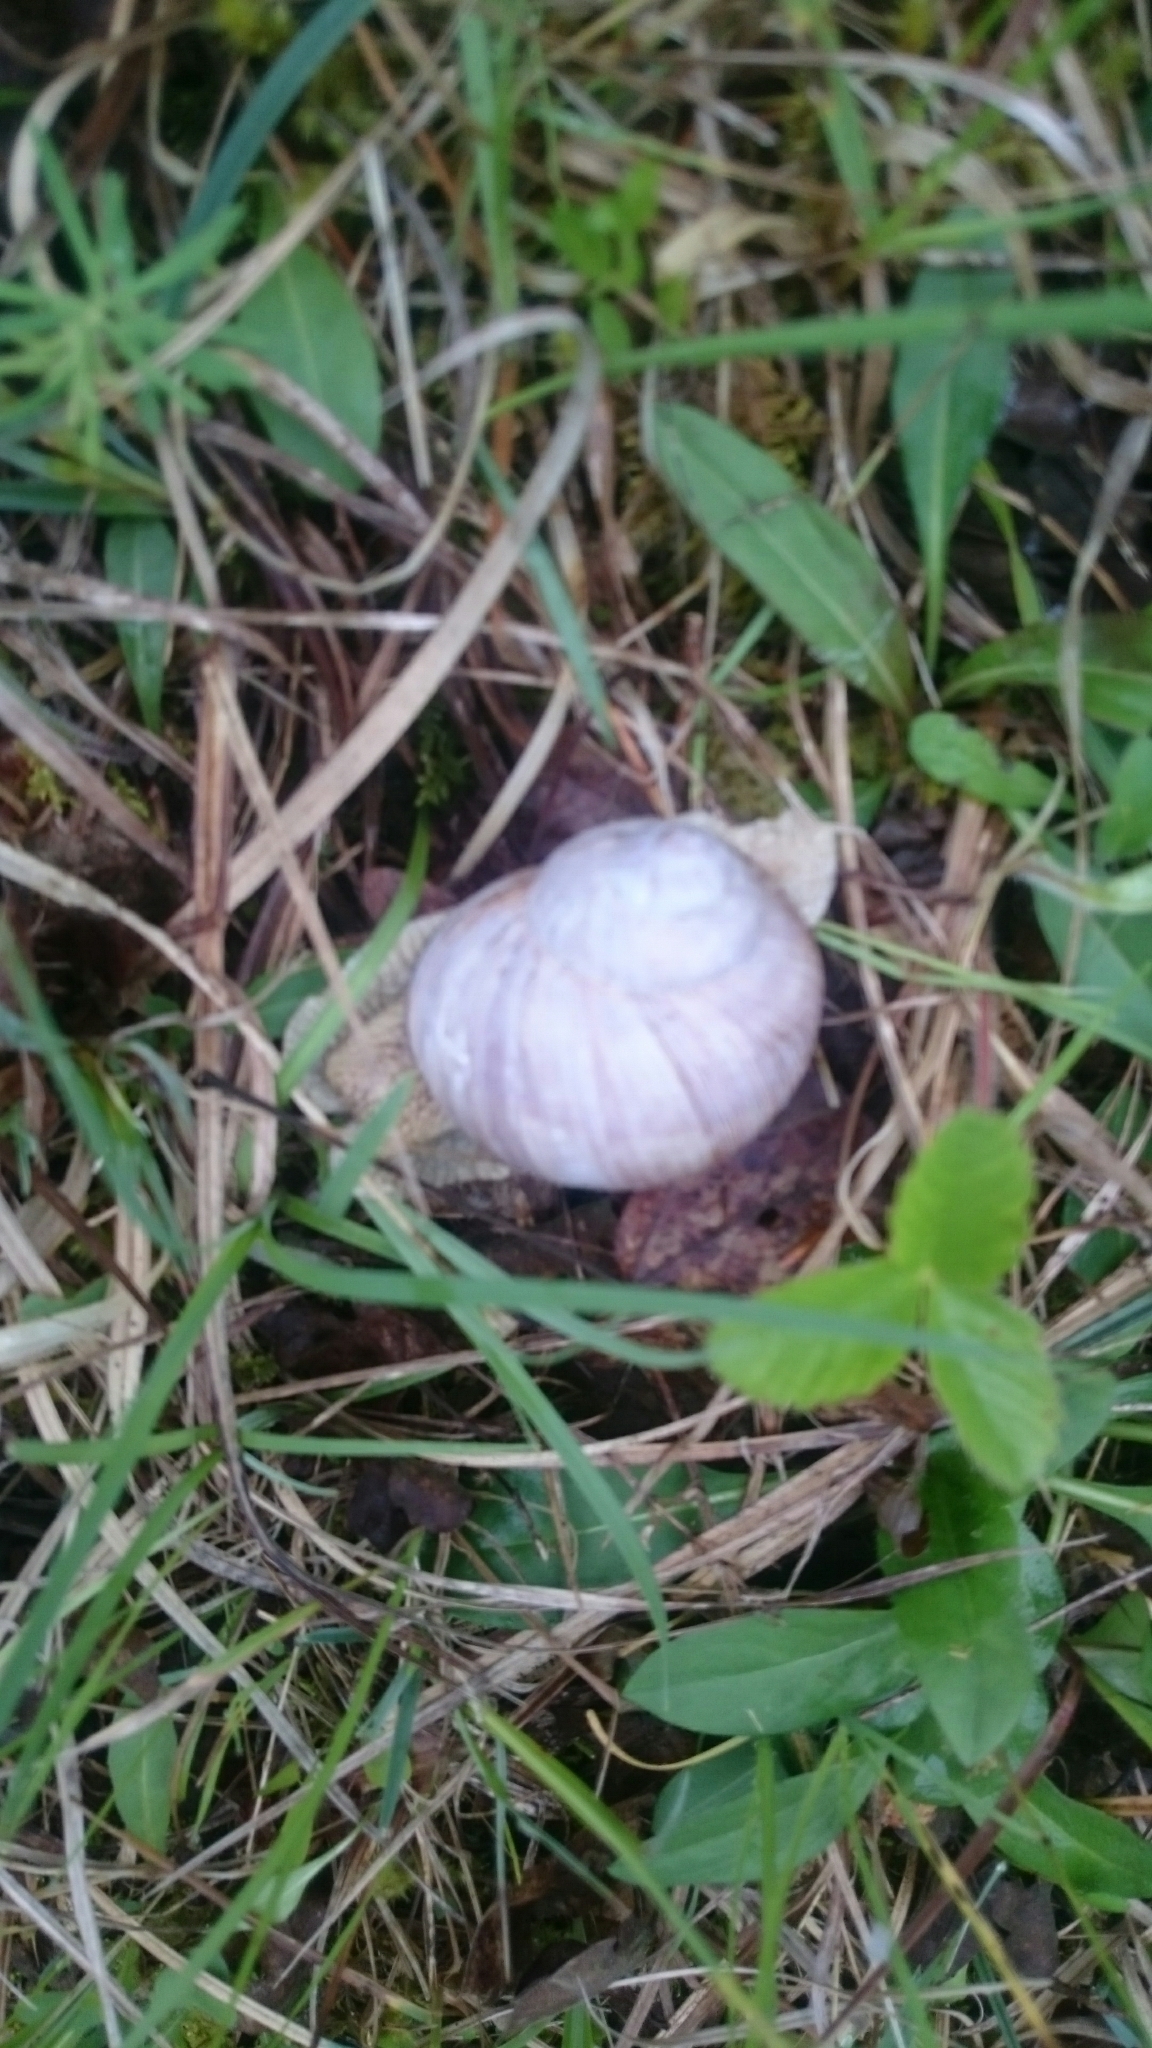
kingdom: Animalia
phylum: Mollusca
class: Gastropoda
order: Stylommatophora
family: Helicidae
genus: Helix
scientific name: Helix pomatia
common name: Roman snail
